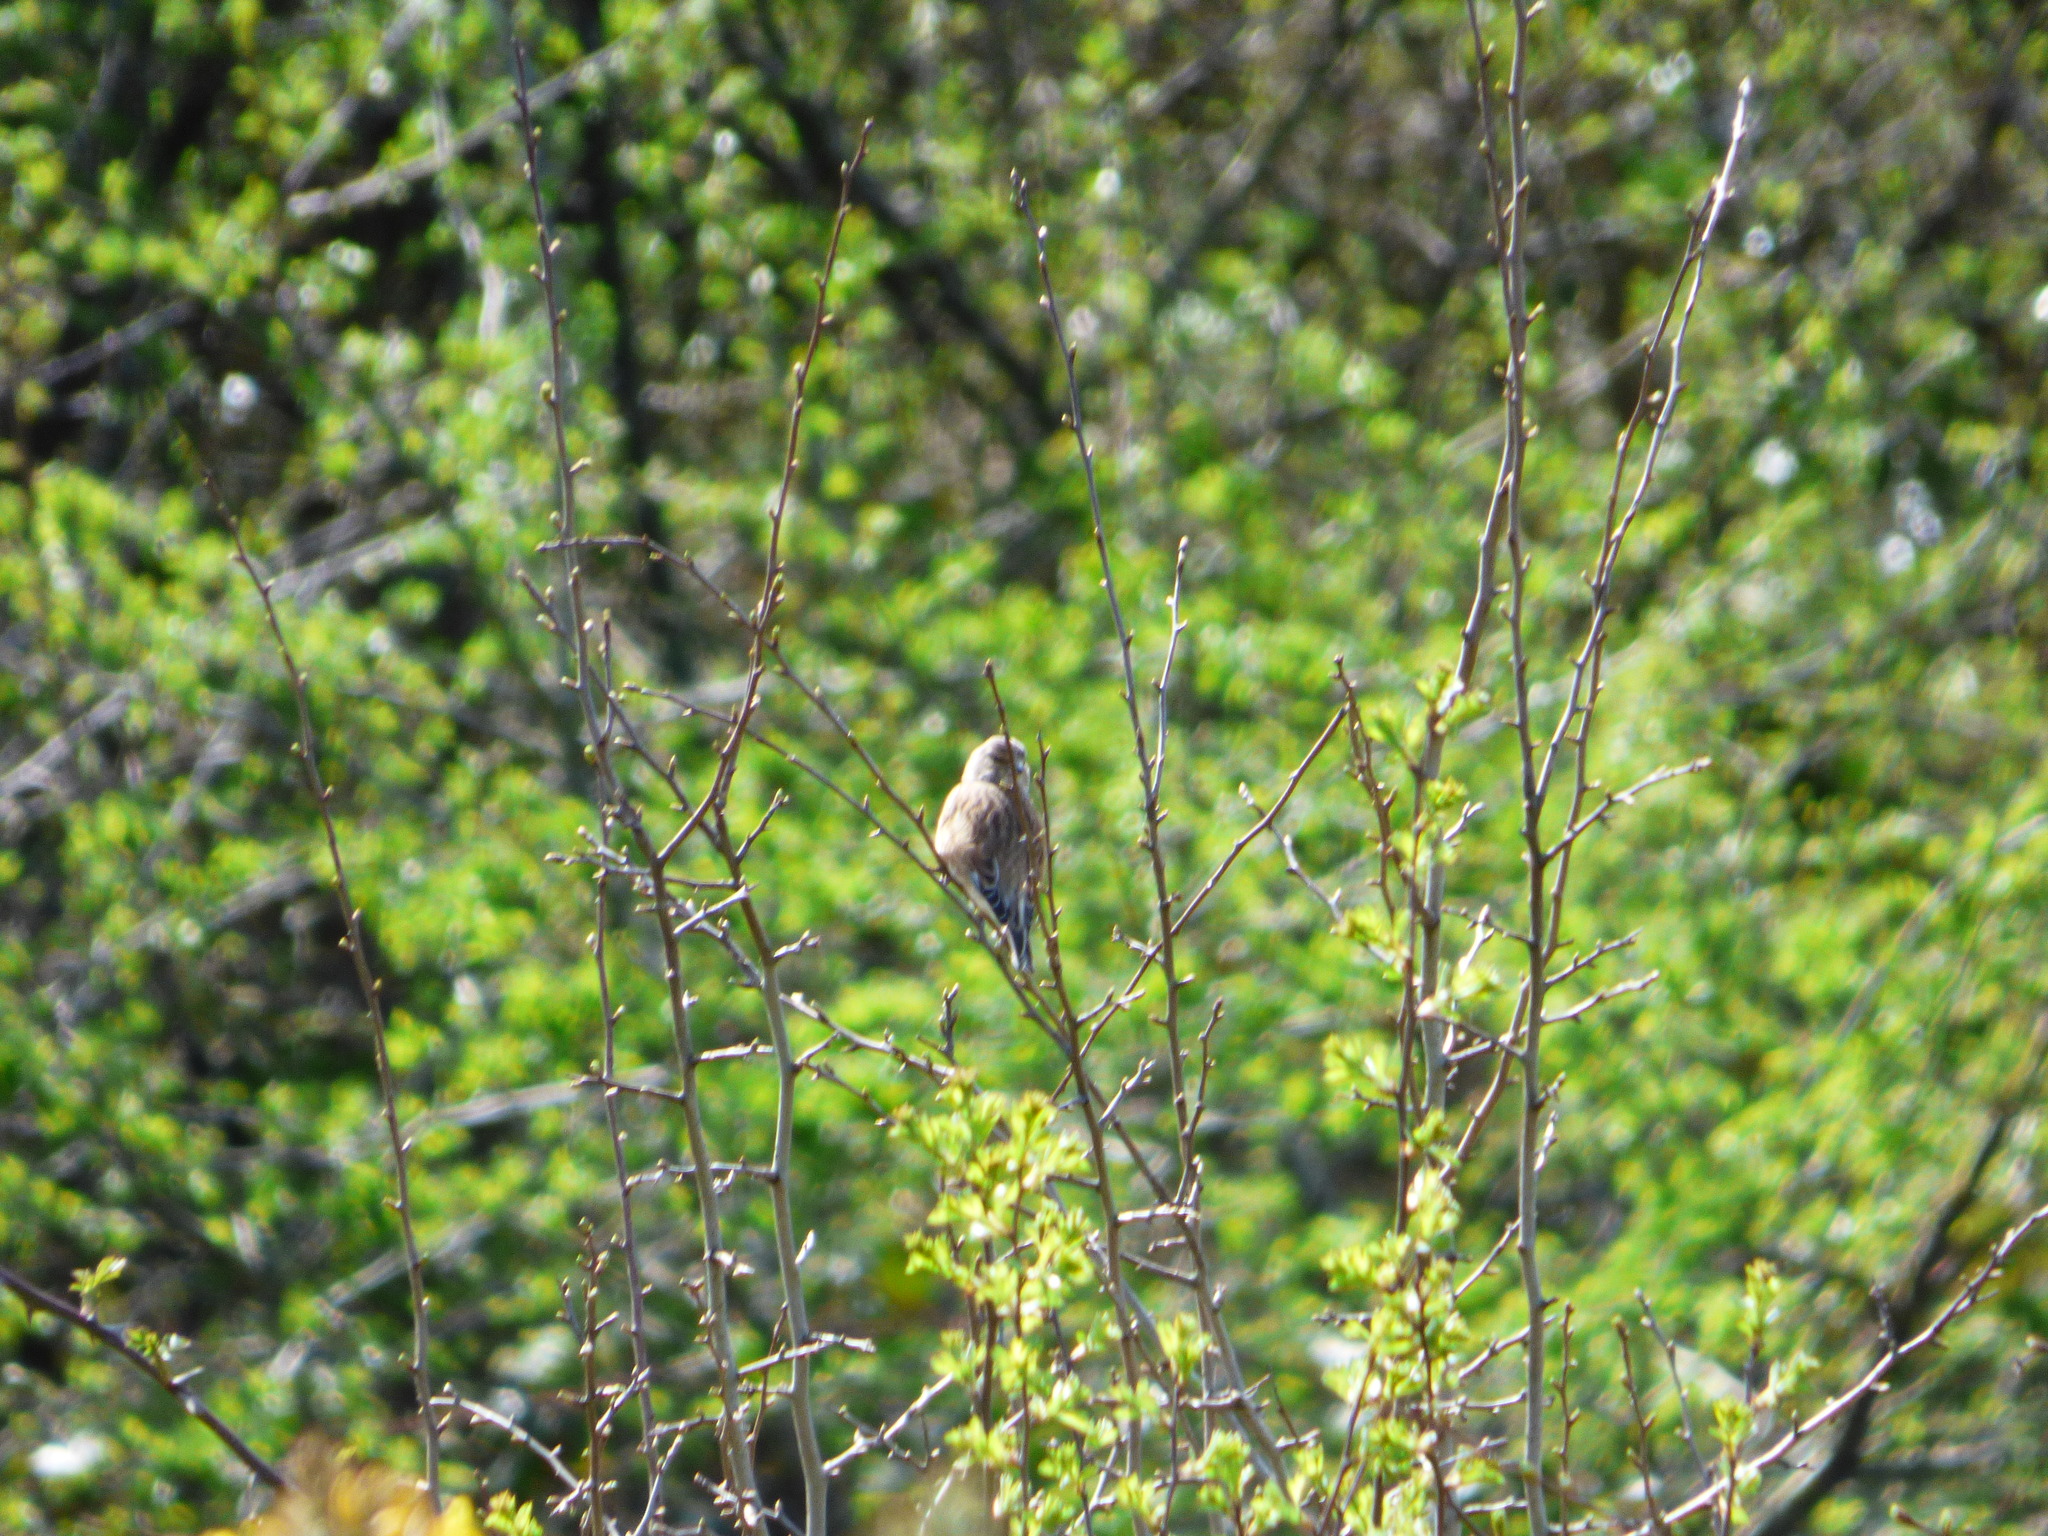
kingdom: Animalia
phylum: Chordata
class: Aves
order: Passeriformes
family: Fringillidae
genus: Linaria
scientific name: Linaria cannabina
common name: Common linnet
